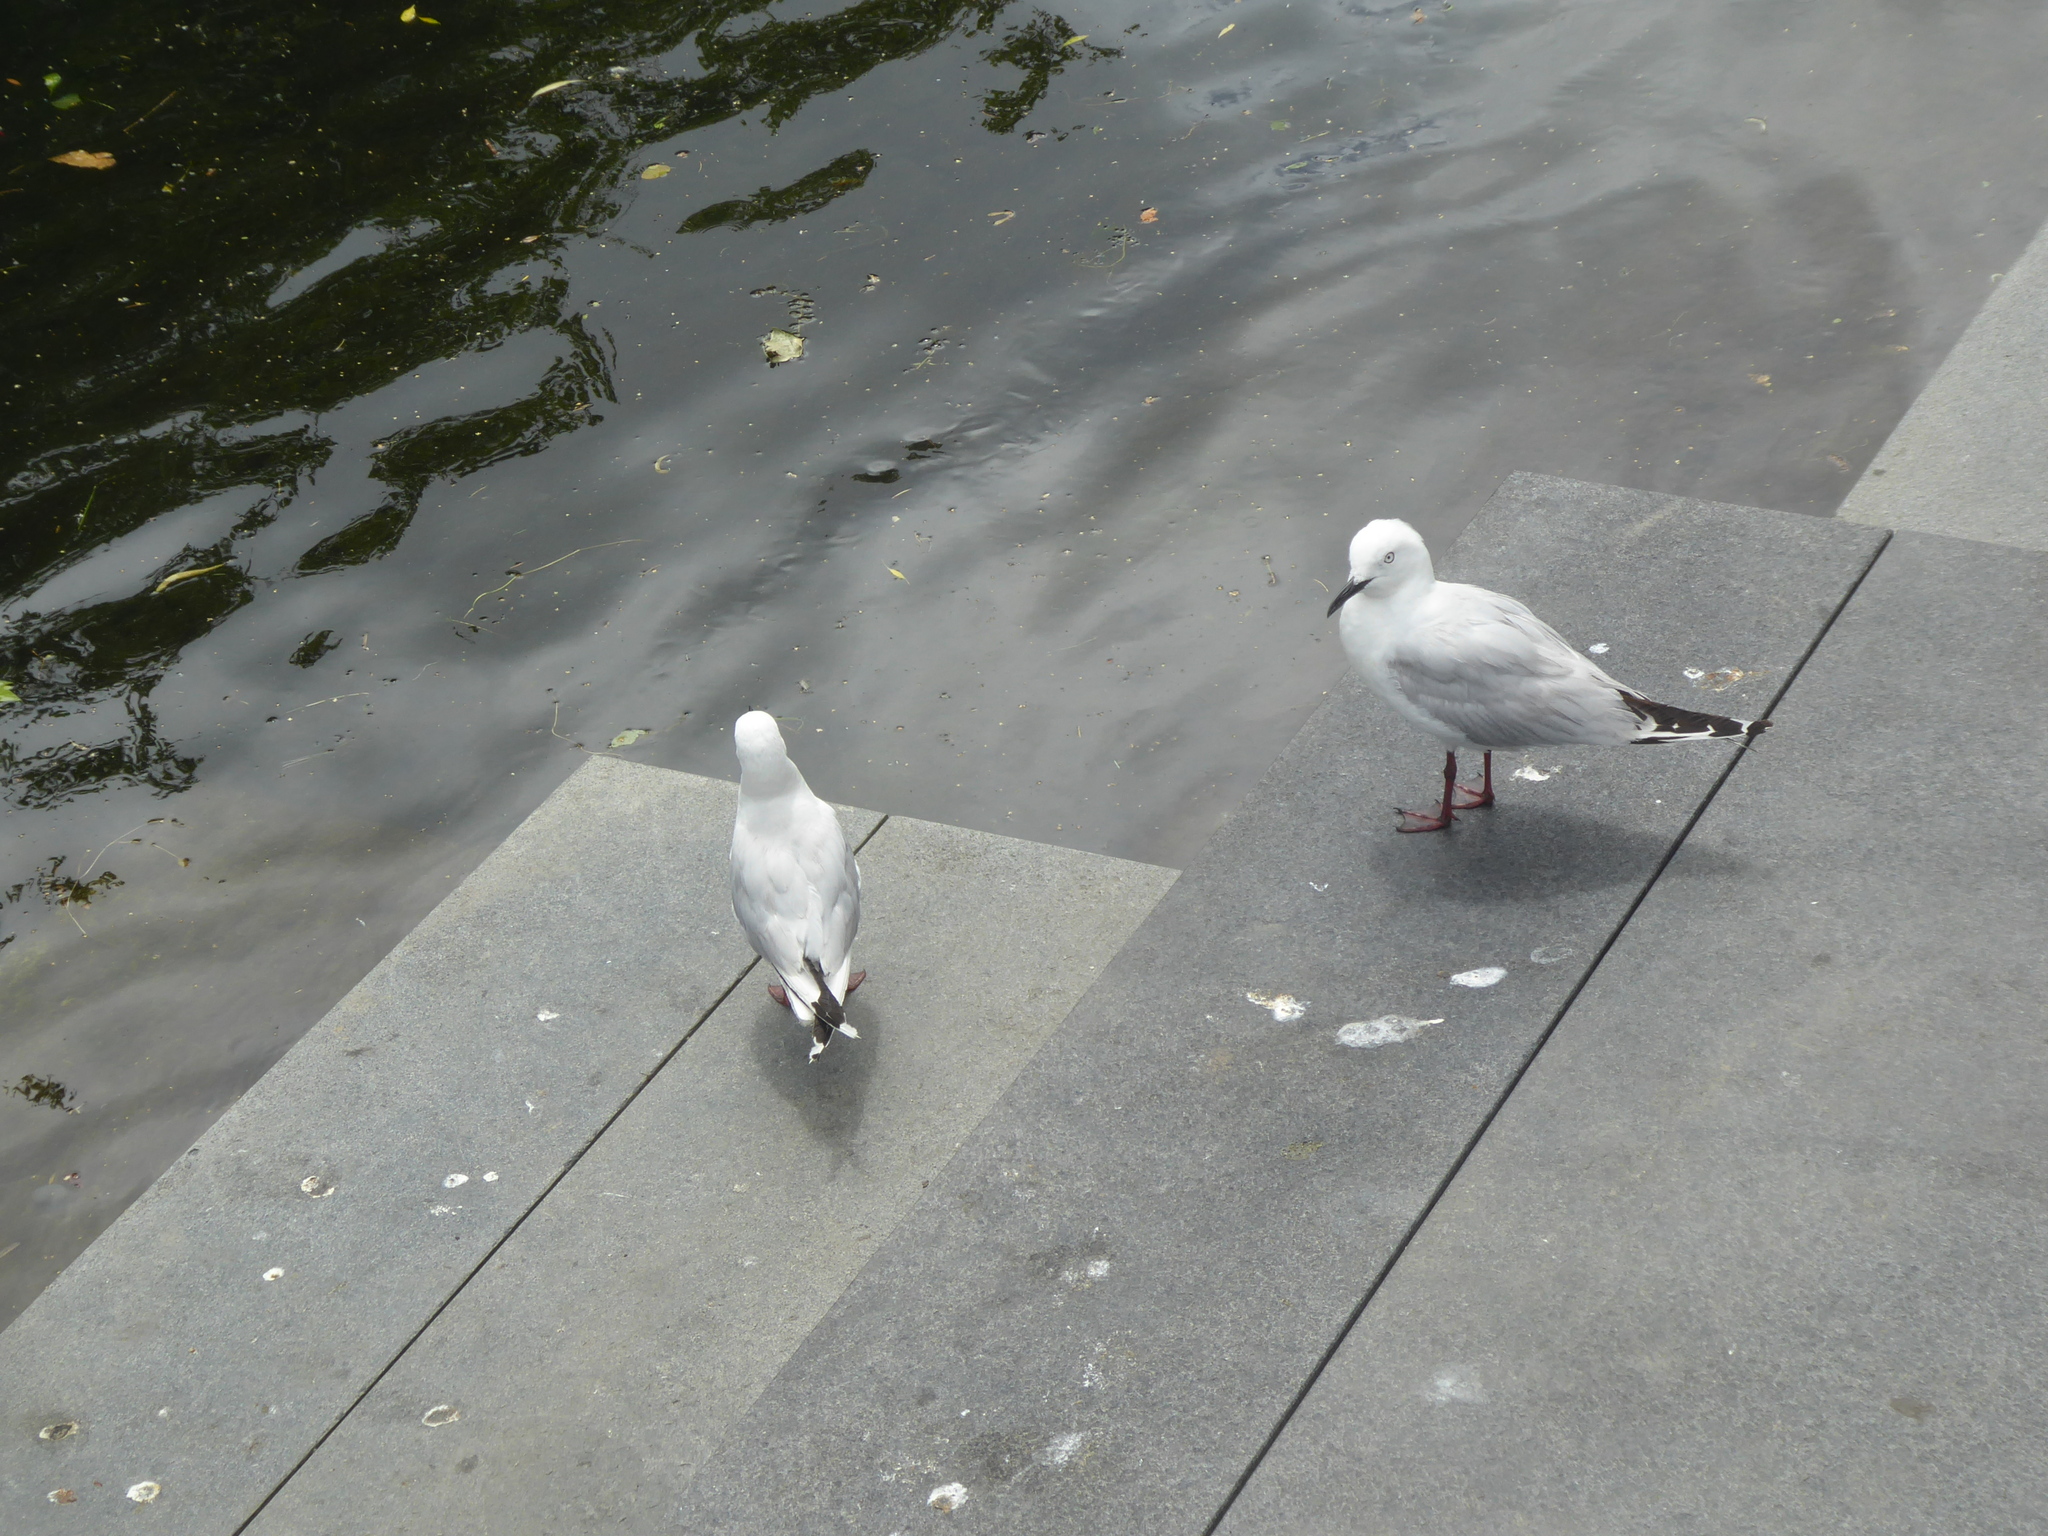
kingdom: Animalia
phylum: Chordata
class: Aves
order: Charadriiformes
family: Laridae
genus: Chroicocephalus
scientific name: Chroicocephalus bulleri
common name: Black-billed gull
